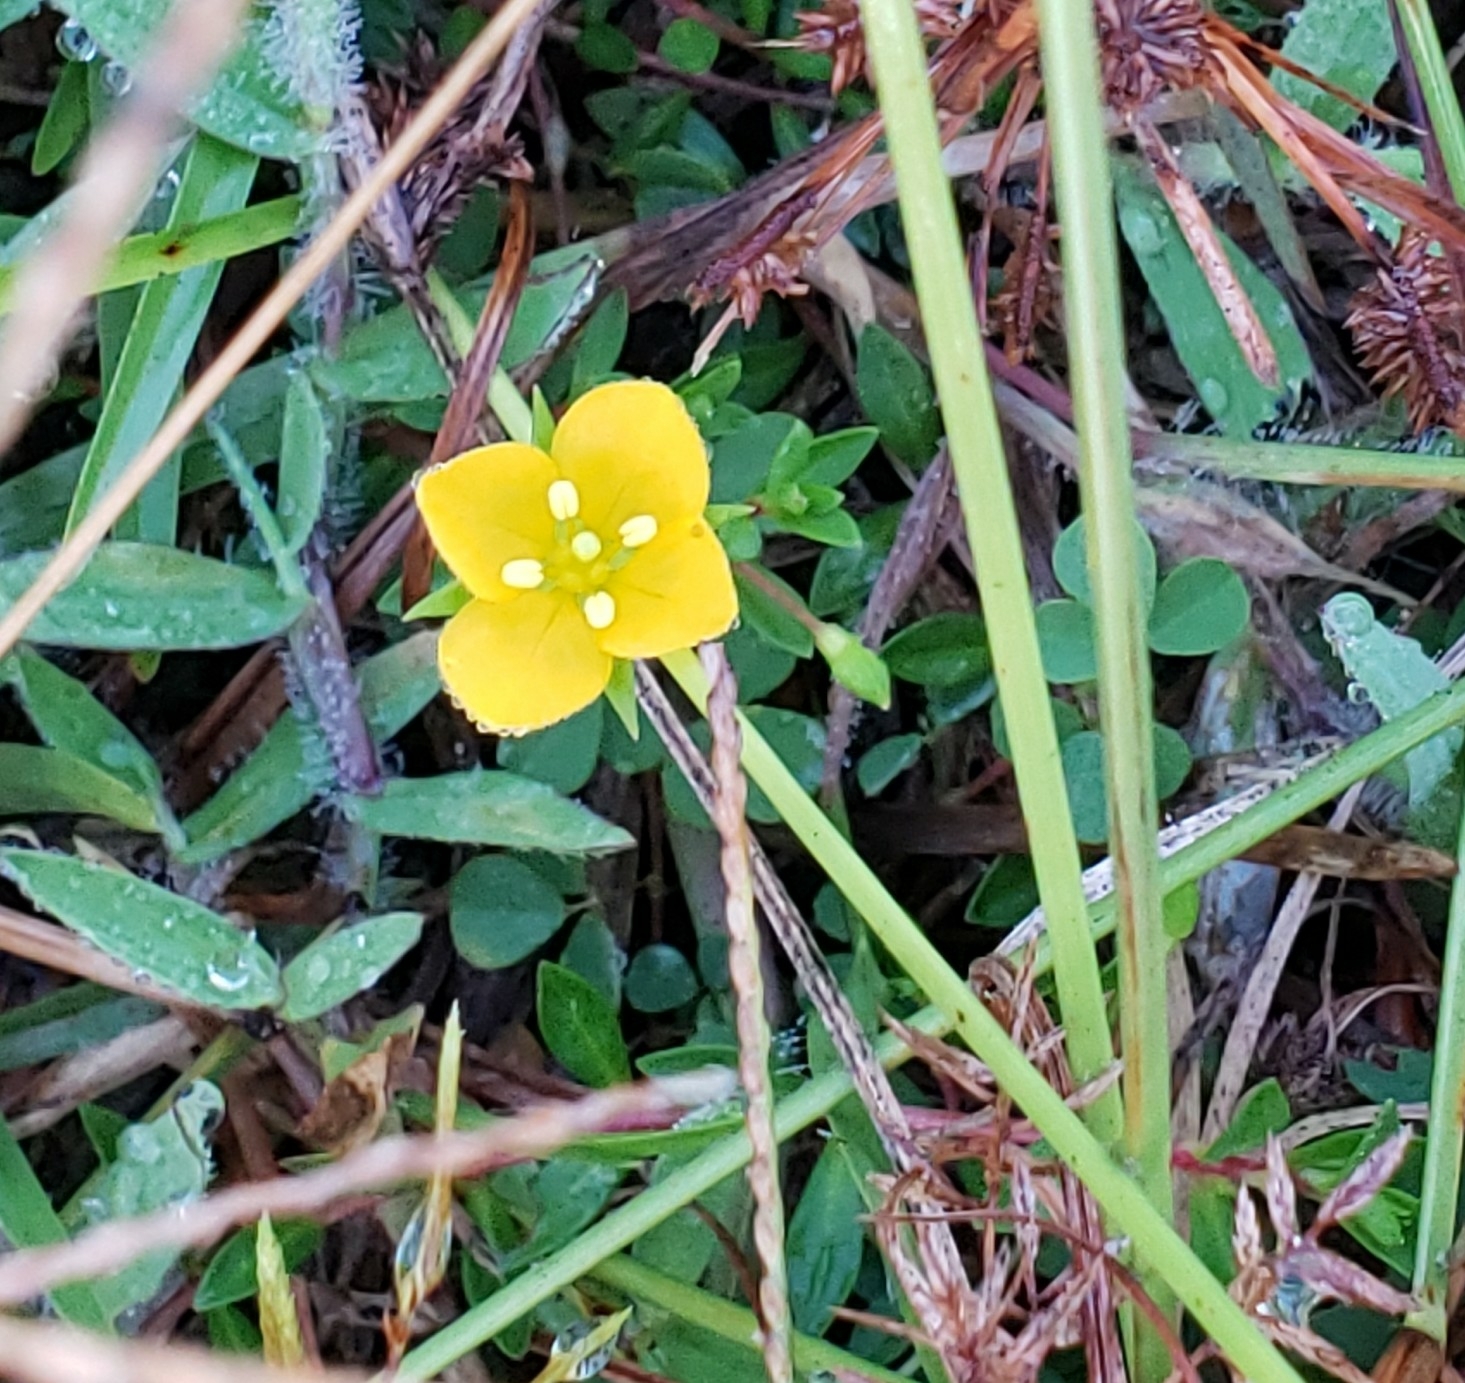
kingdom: Plantae
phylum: Tracheophyta
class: Magnoliopsida
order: Myrtales
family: Onagraceae
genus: Ludwigia
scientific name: Ludwigia arcuata
